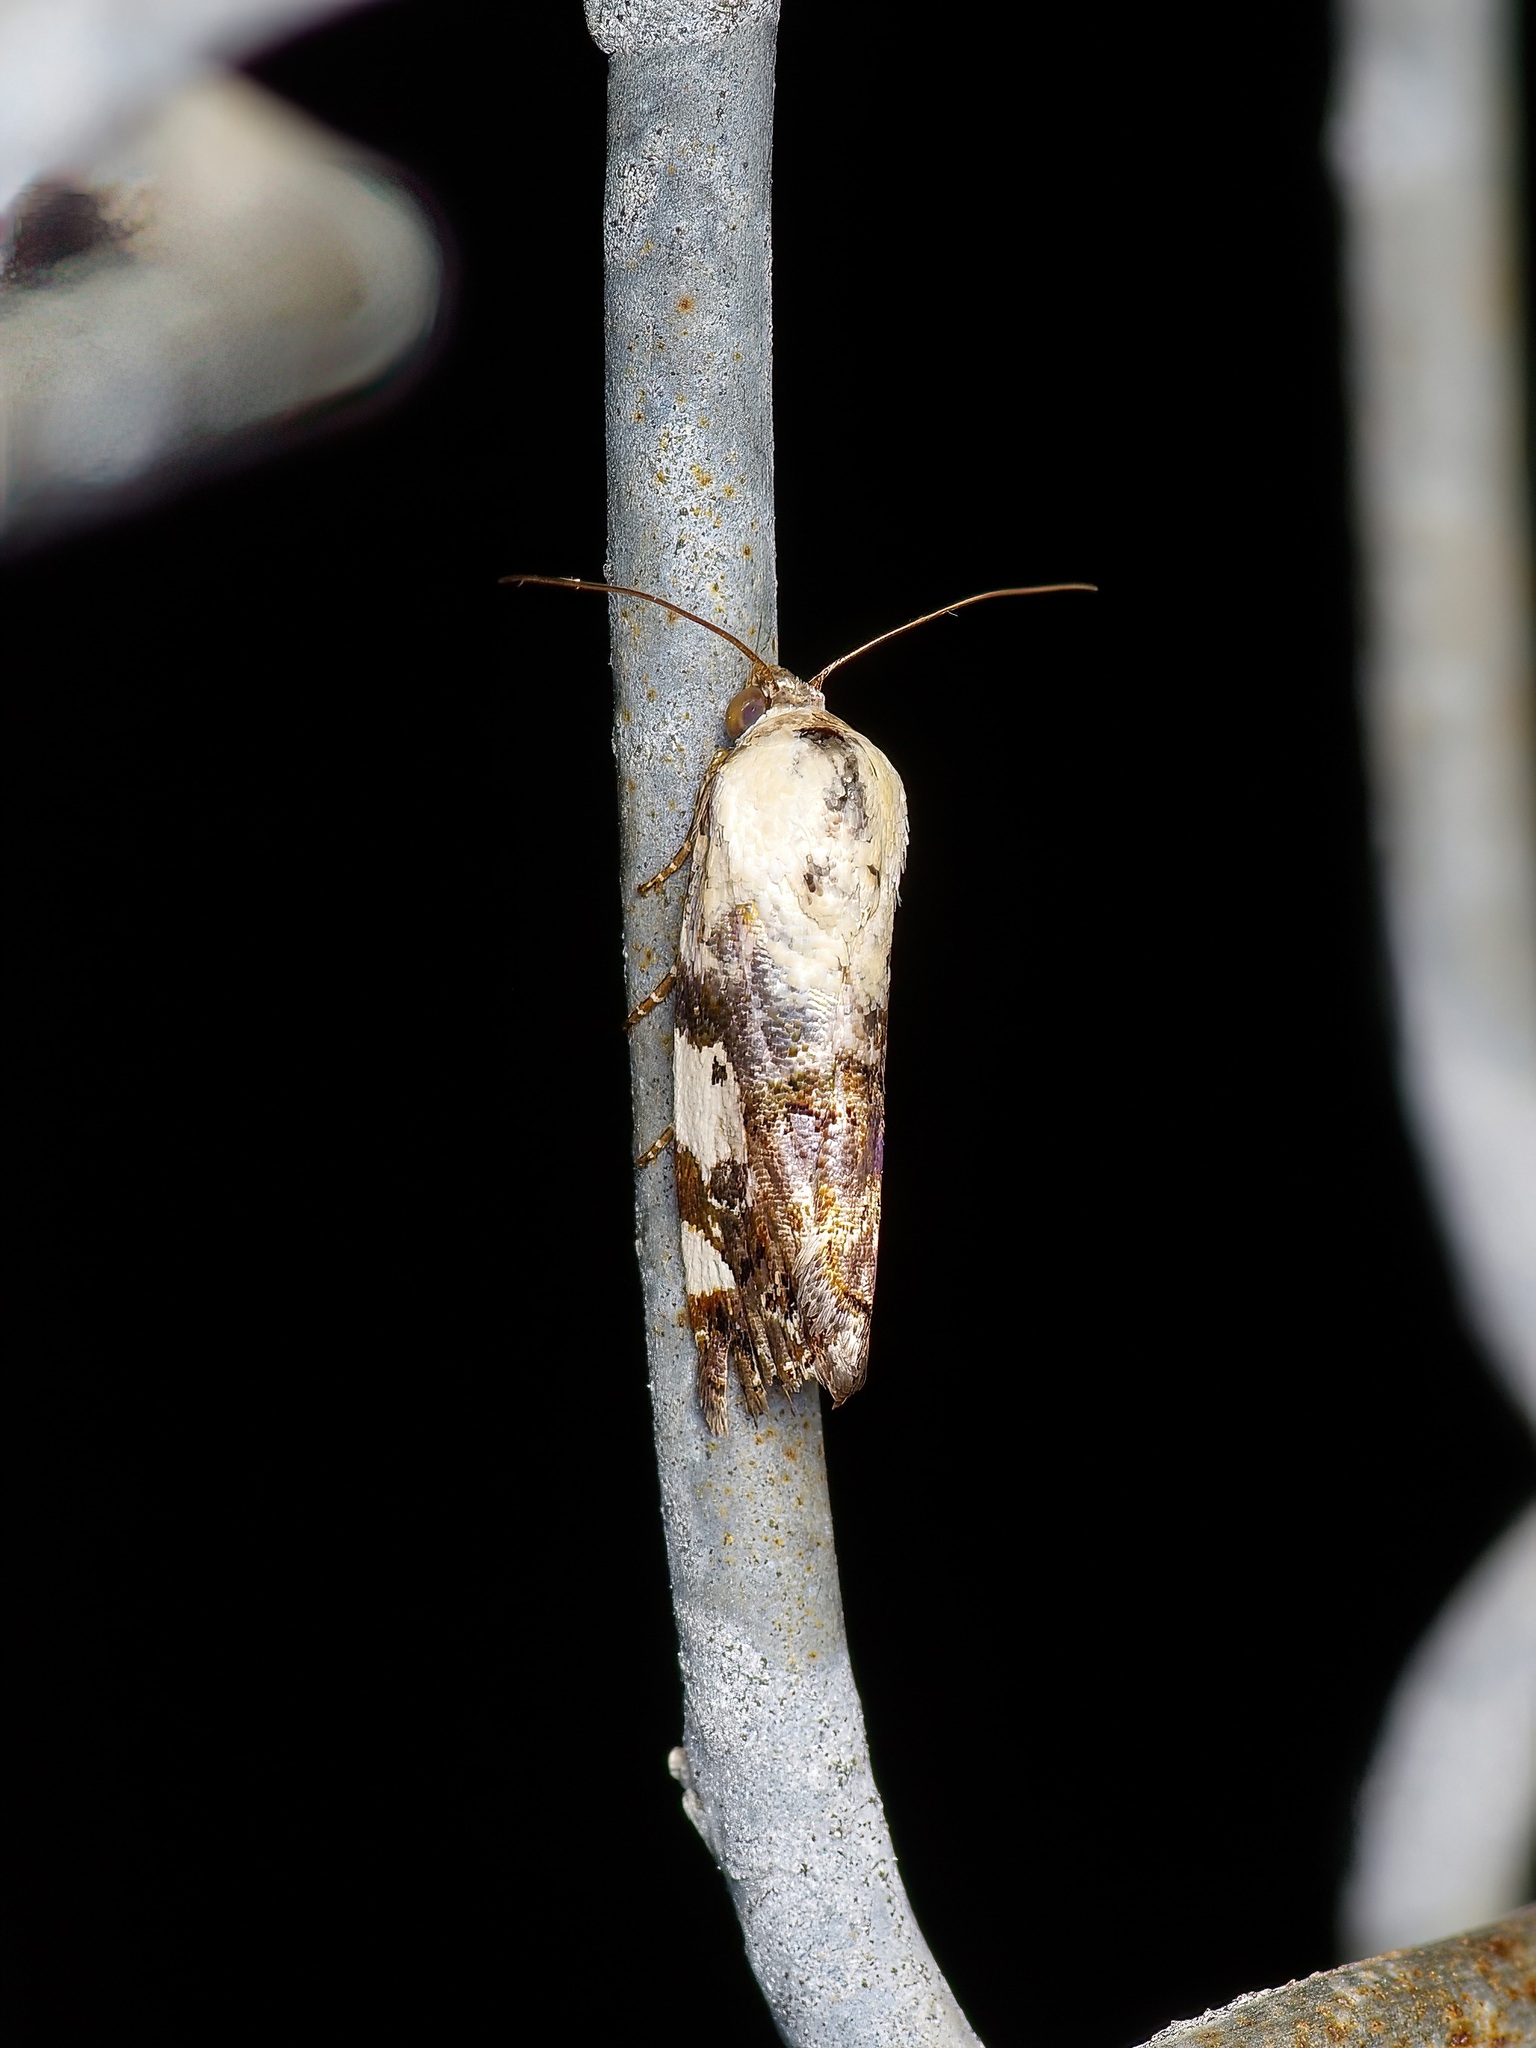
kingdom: Animalia
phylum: Arthropoda
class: Insecta
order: Lepidoptera
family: Noctuidae
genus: Acontia
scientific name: Acontia aprica
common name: Nun
